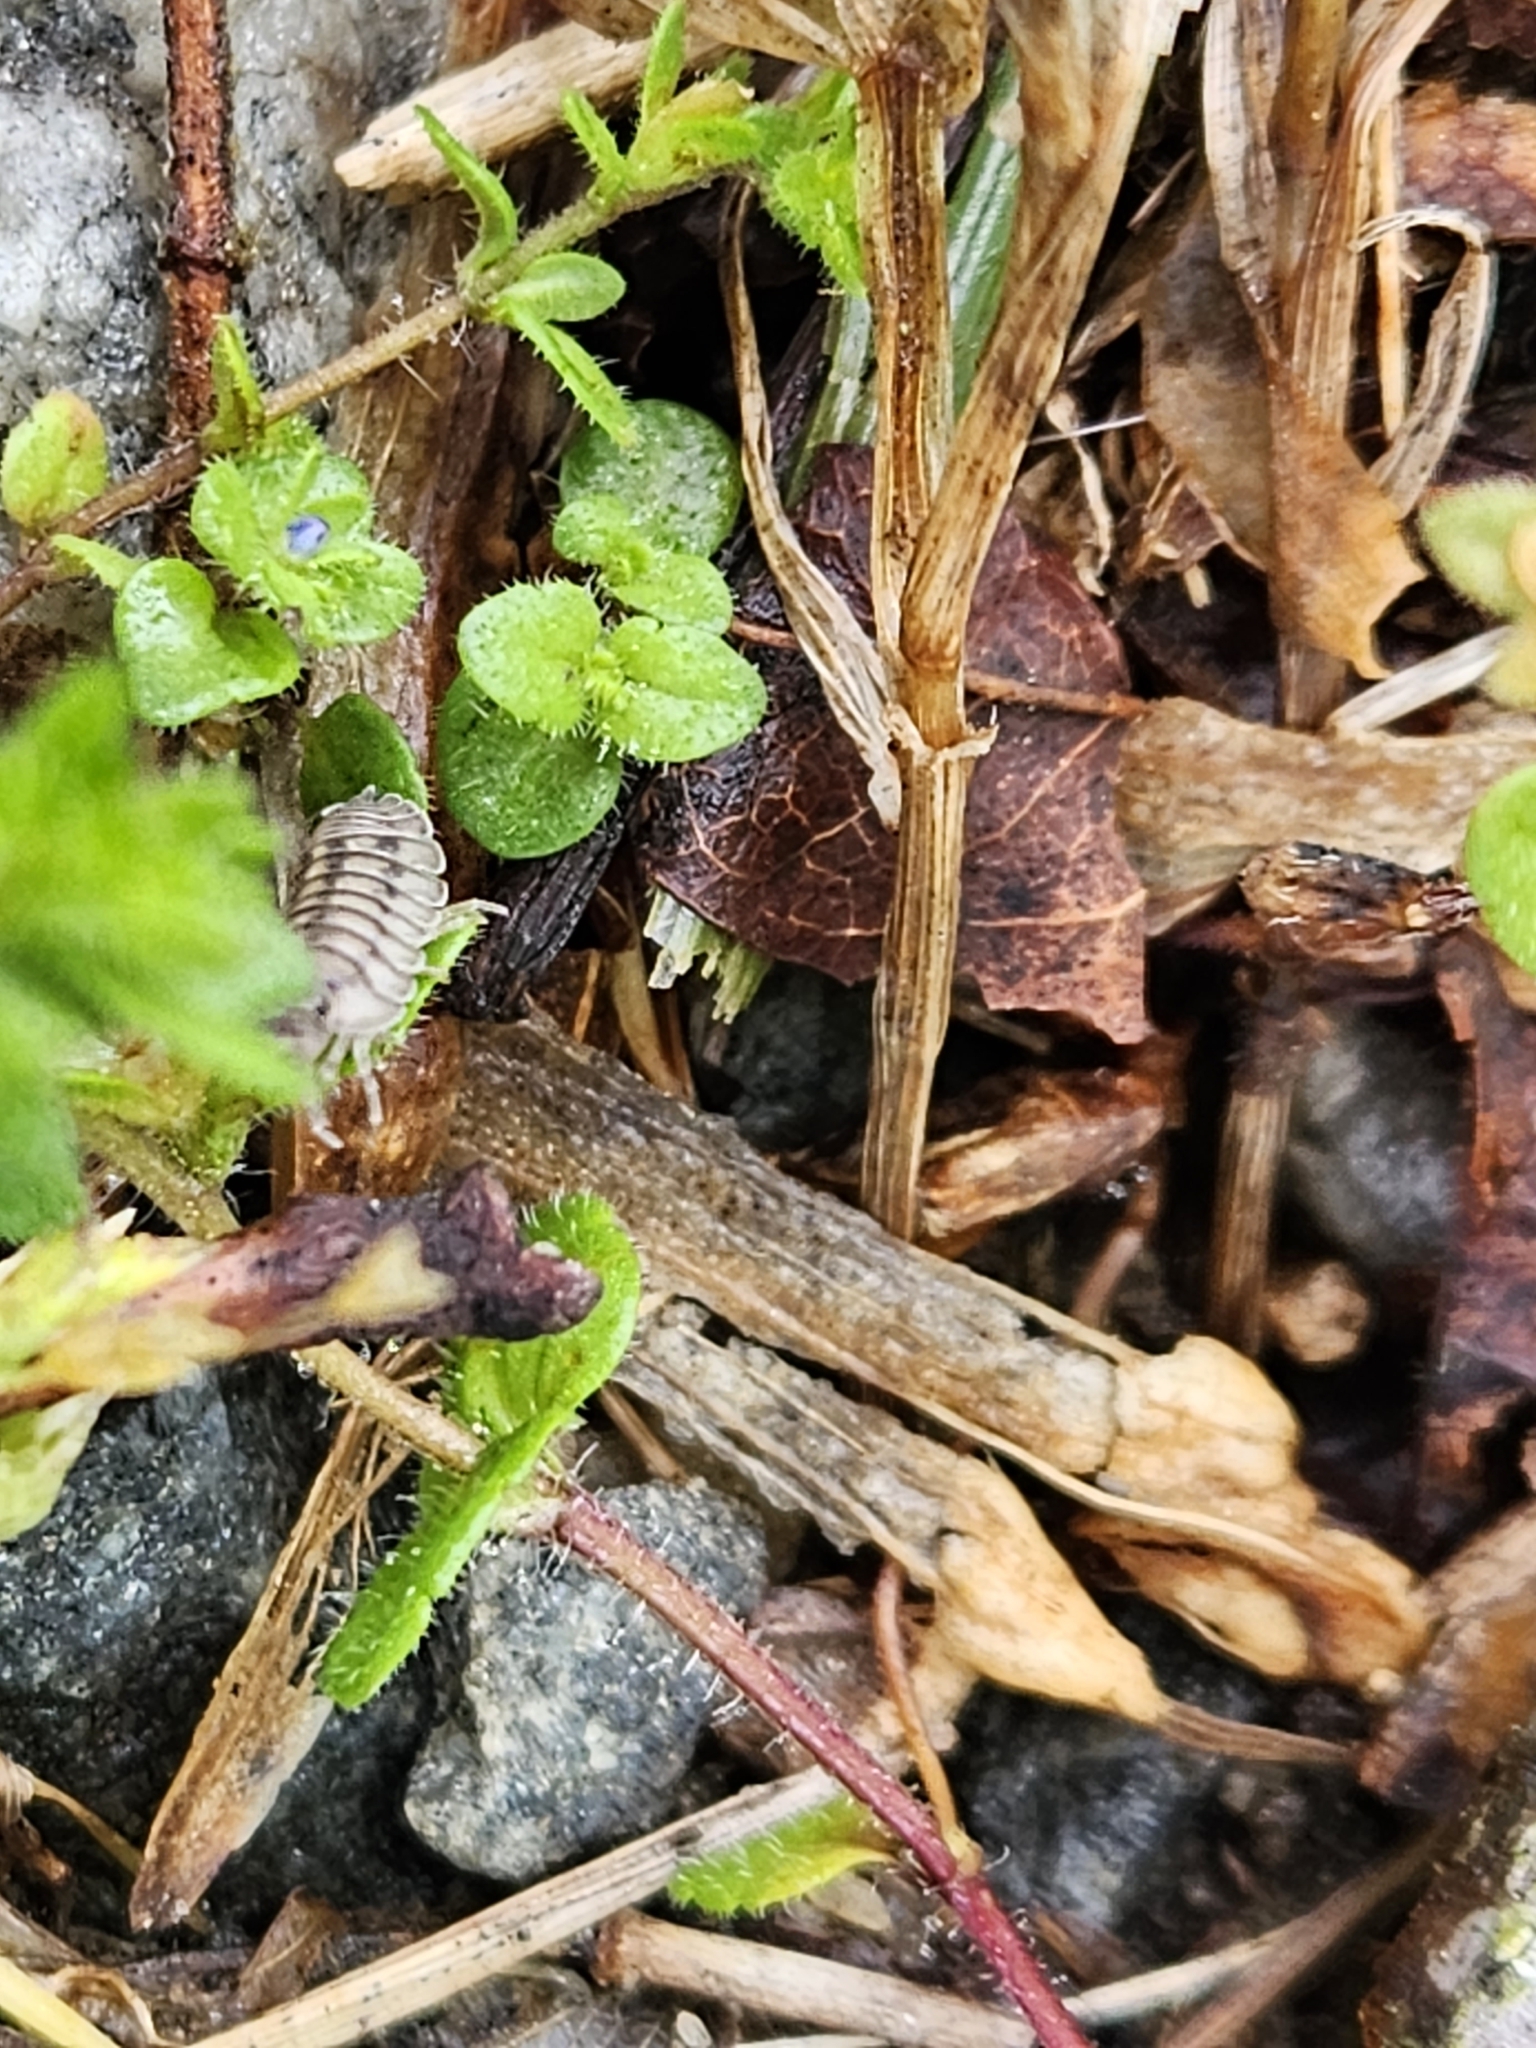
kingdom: Animalia
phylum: Arthropoda
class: Malacostraca
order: Isopoda
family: Armadillidiidae
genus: Armadillidium
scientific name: Armadillidium nasatum
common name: Isopod
